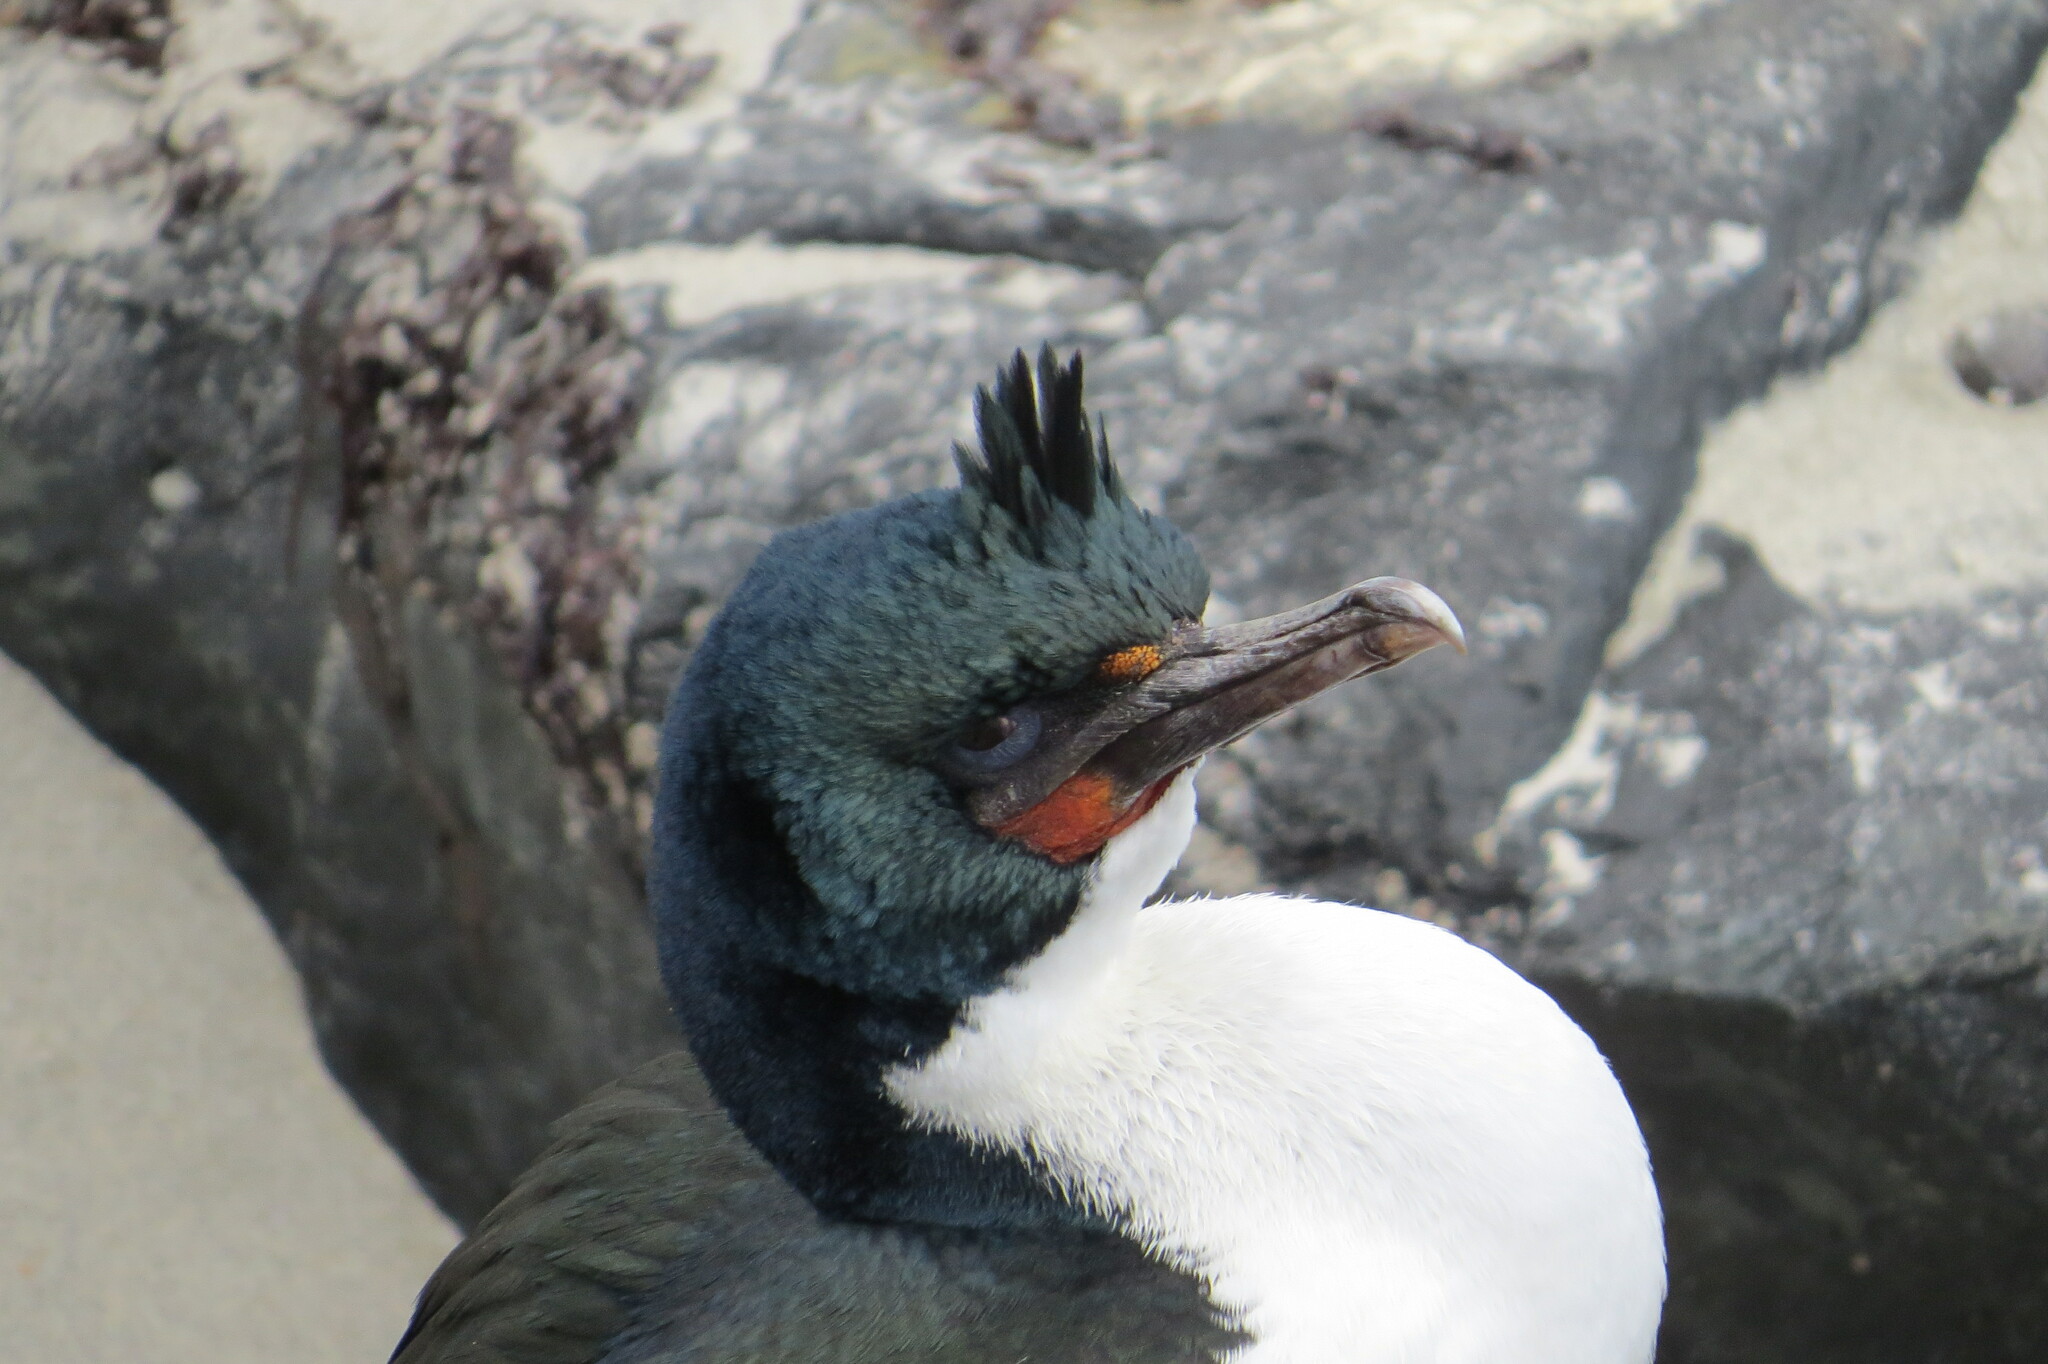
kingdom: Animalia
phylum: Chordata
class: Aves
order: Suliformes
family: Phalacrocoracidae
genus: Leucocarbo
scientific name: Leucocarbo chalconotus
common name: Stewart shag
